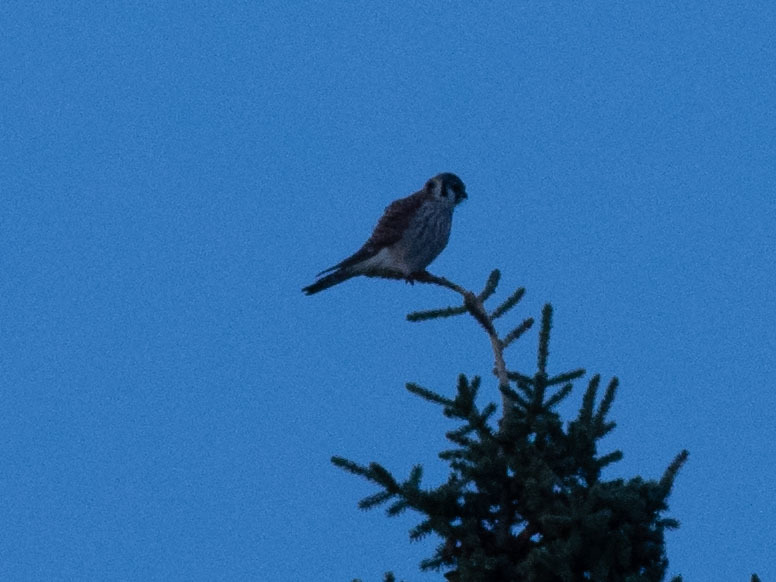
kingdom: Animalia
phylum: Chordata
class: Aves
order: Falconiformes
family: Falconidae
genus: Falco
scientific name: Falco sparverius
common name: American kestrel
